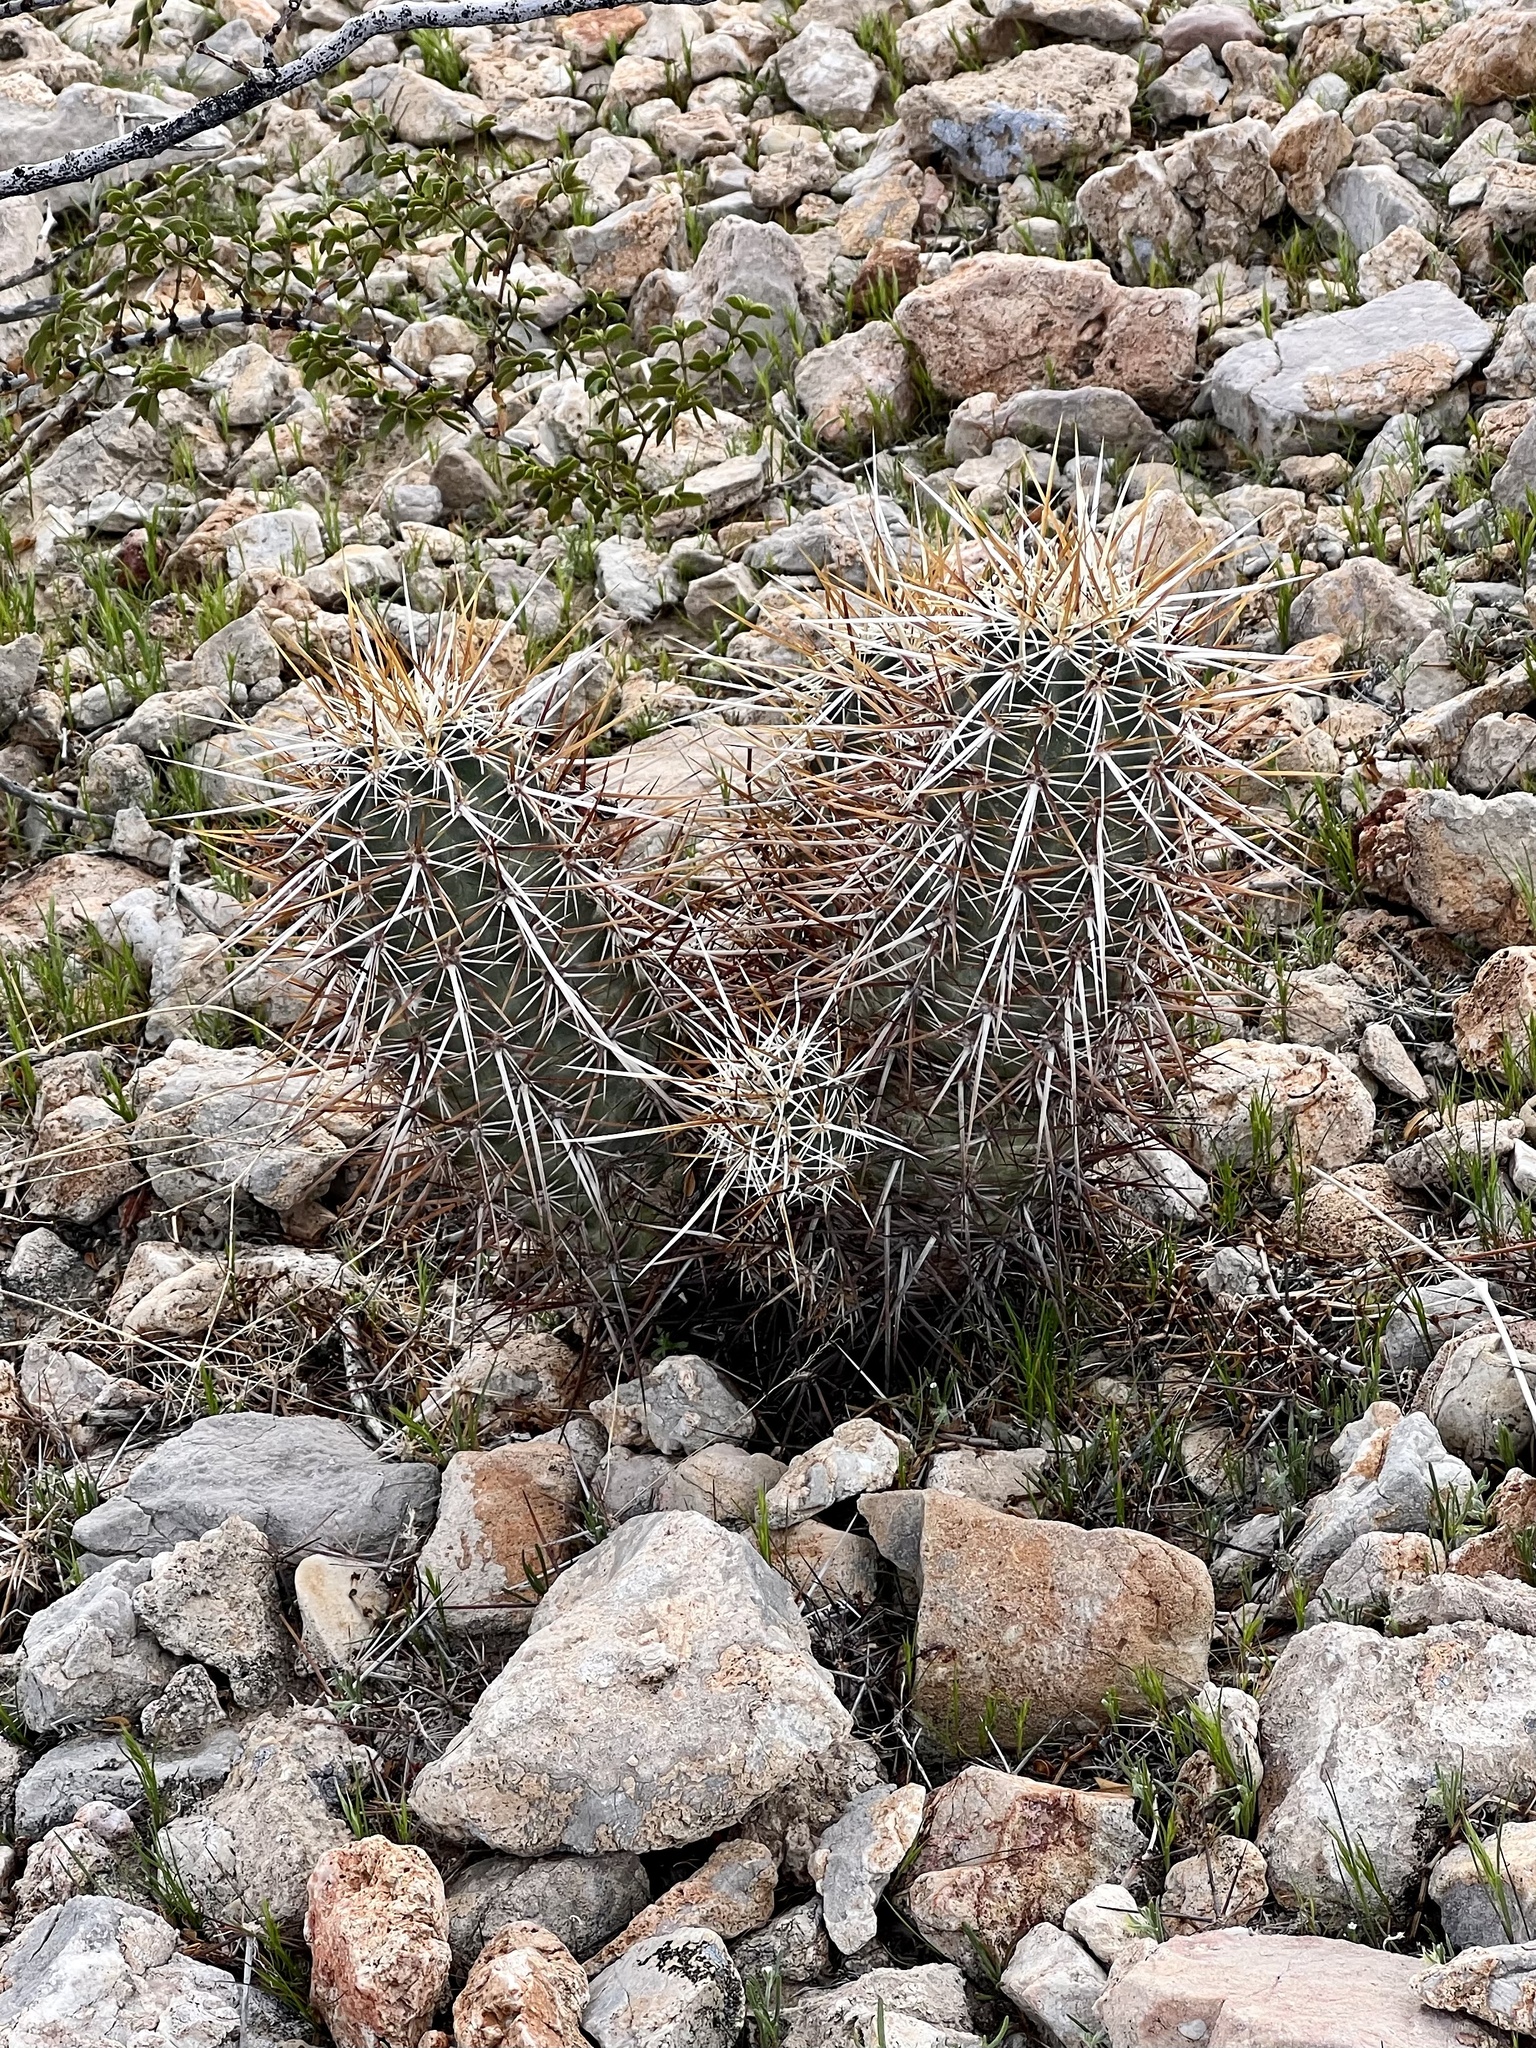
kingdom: Plantae
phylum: Tracheophyta
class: Magnoliopsida
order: Caryophyllales
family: Cactaceae
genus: Echinocereus
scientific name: Echinocereus engelmannii
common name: Engelmann's hedgehog cactus
